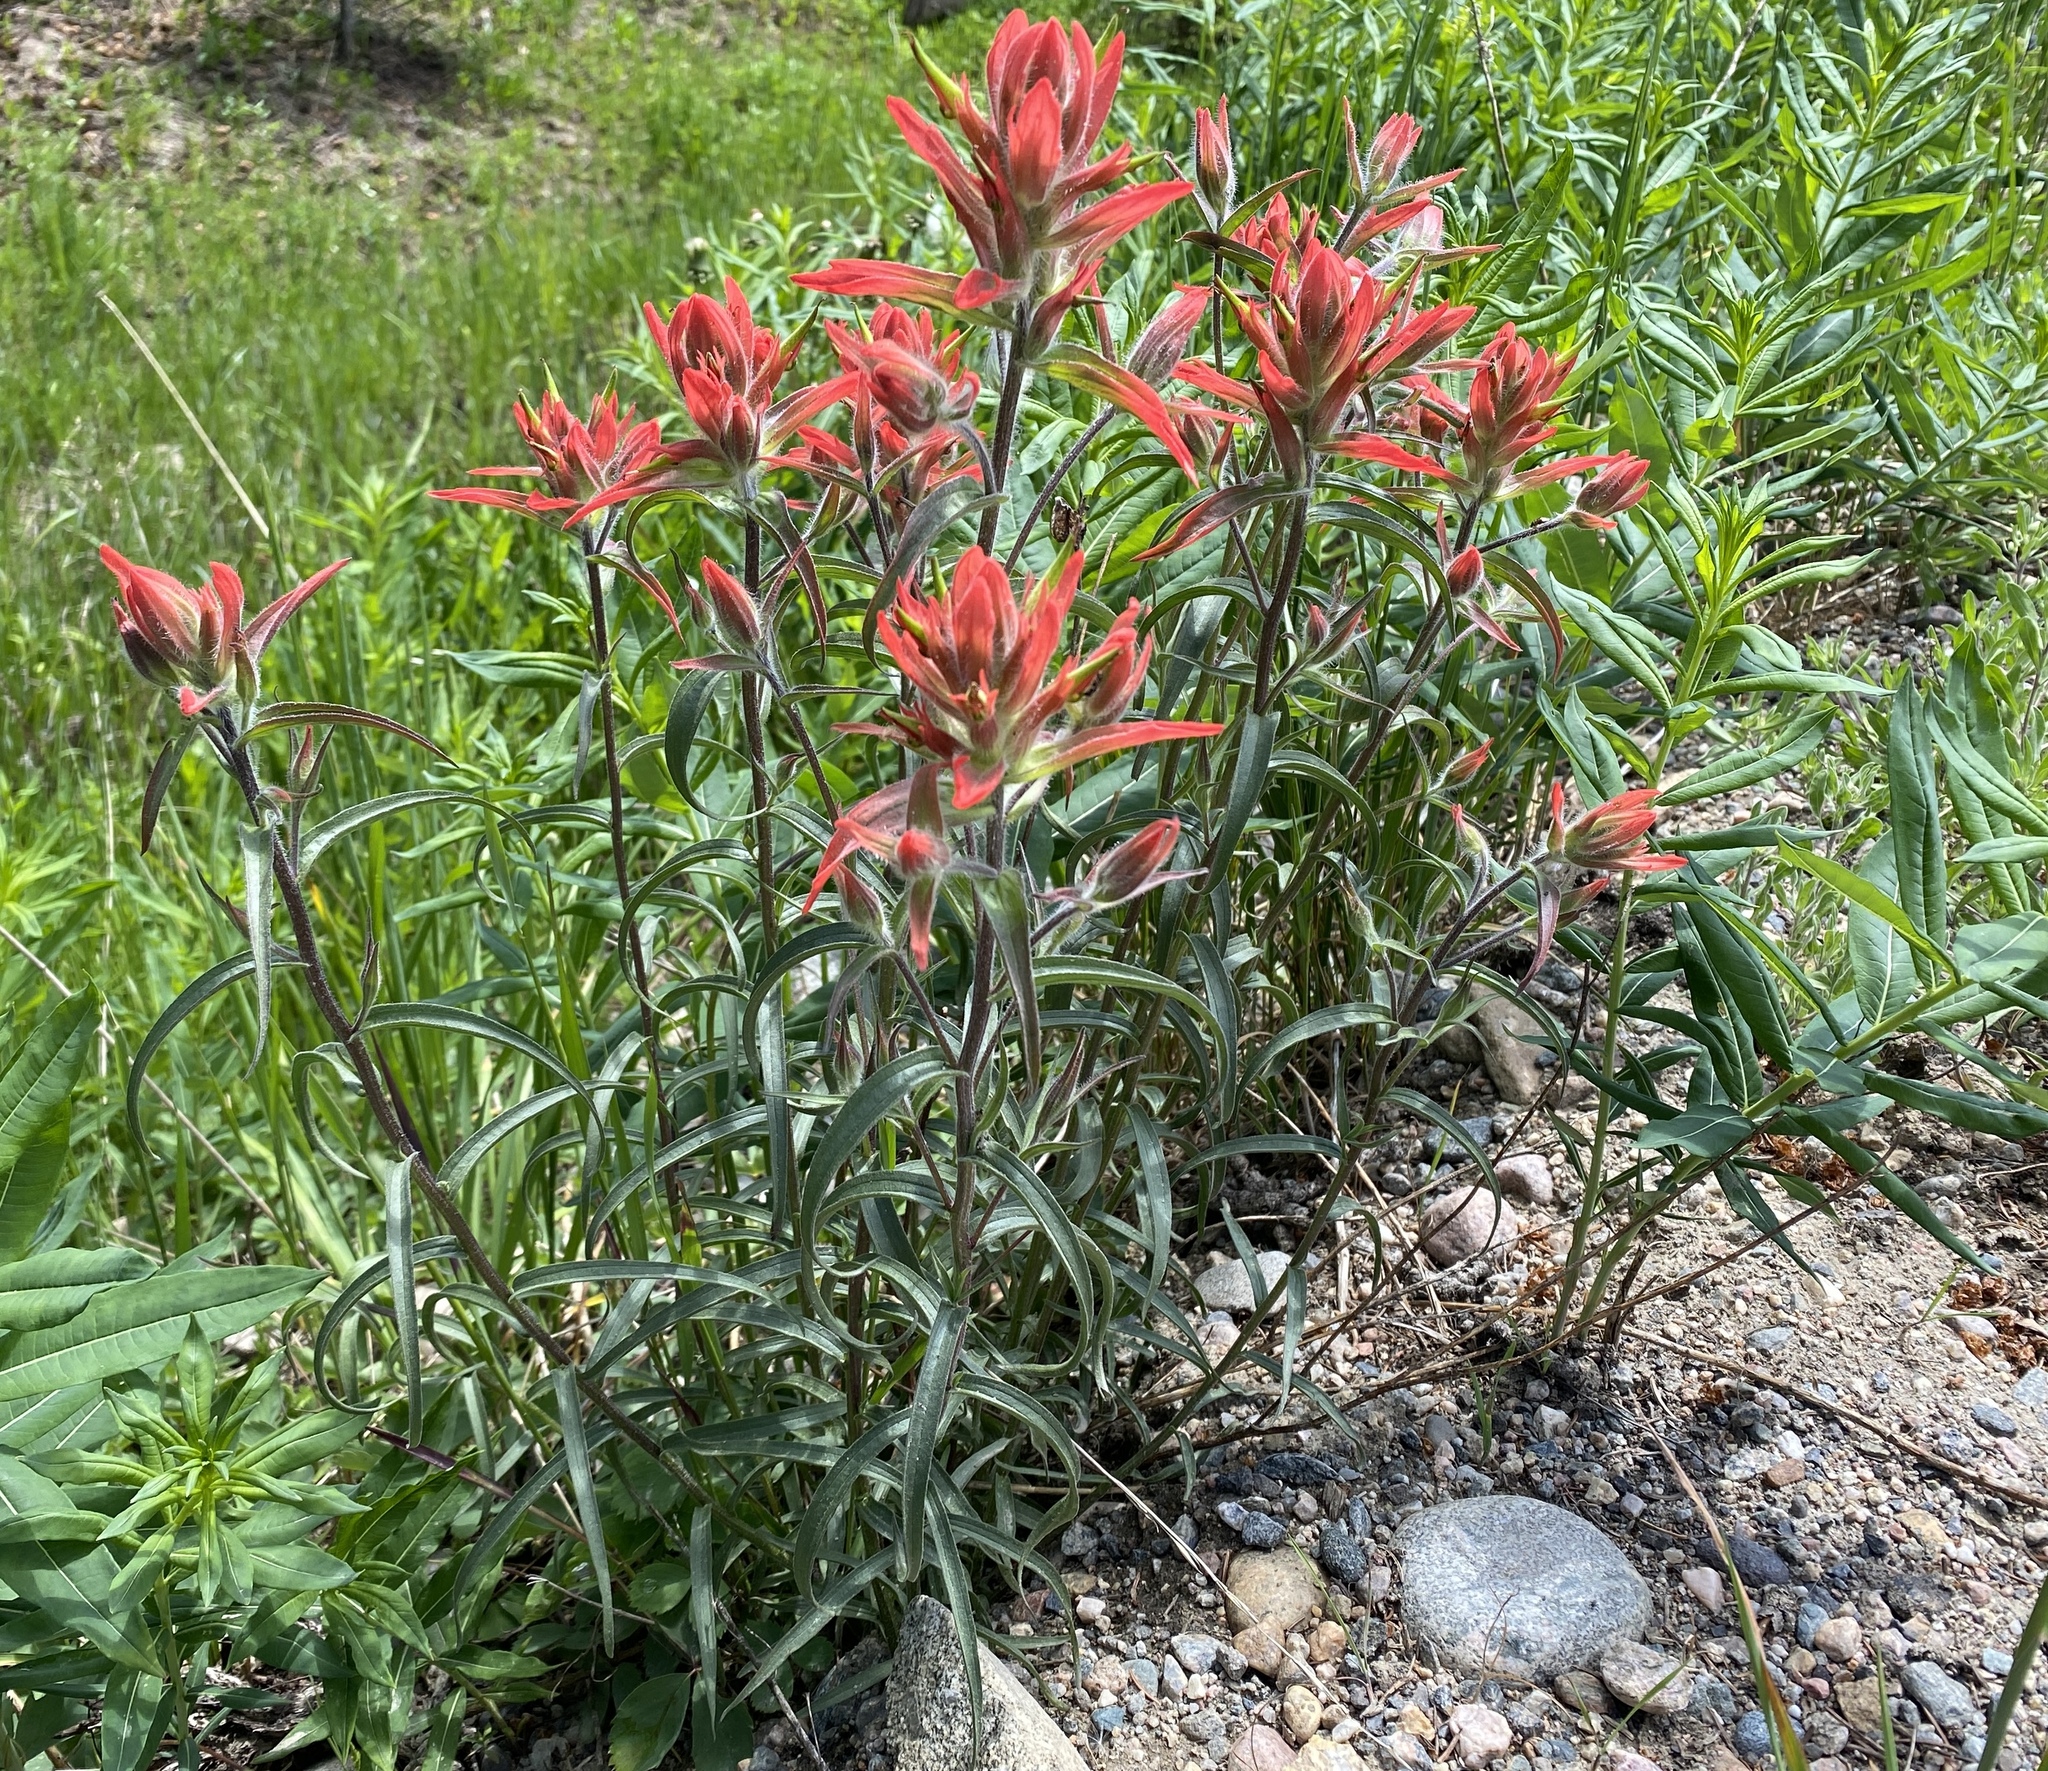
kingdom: Plantae
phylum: Tracheophyta
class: Magnoliopsida
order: Lamiales
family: Orobanchaceae
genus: Castilleja
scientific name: Castilleja miniata
